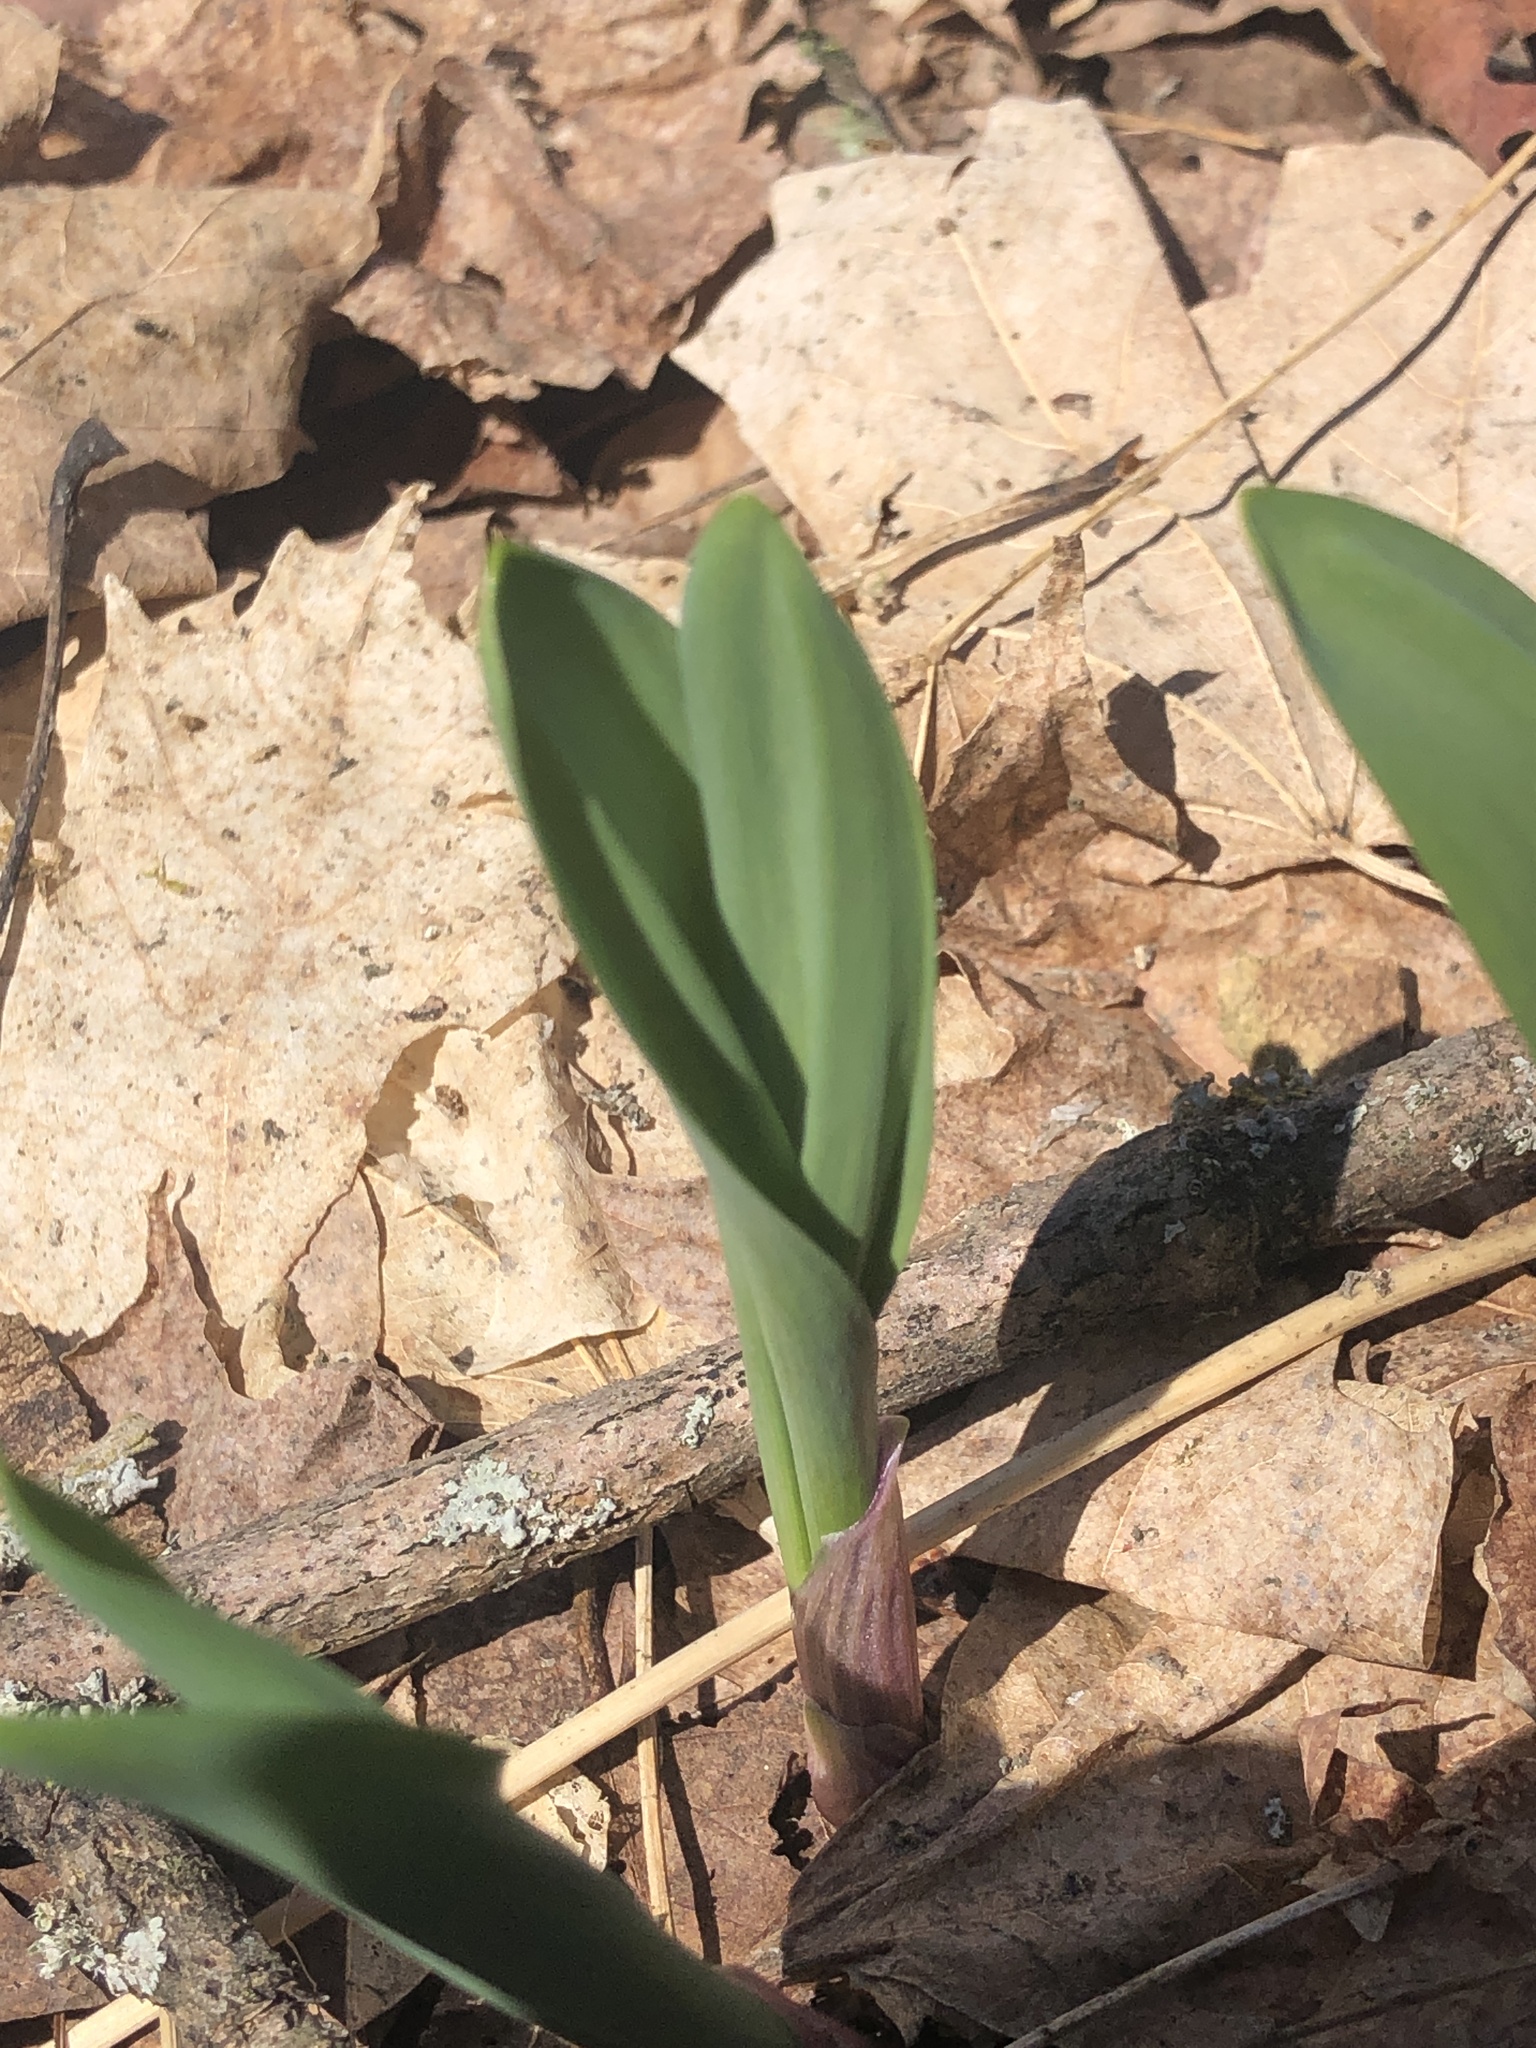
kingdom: Plantae
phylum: Tracheophyta
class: Liliopsida
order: Asparagales
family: Amaryllidaceae
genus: Allium
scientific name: Allium tricoccum
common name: Ramp
